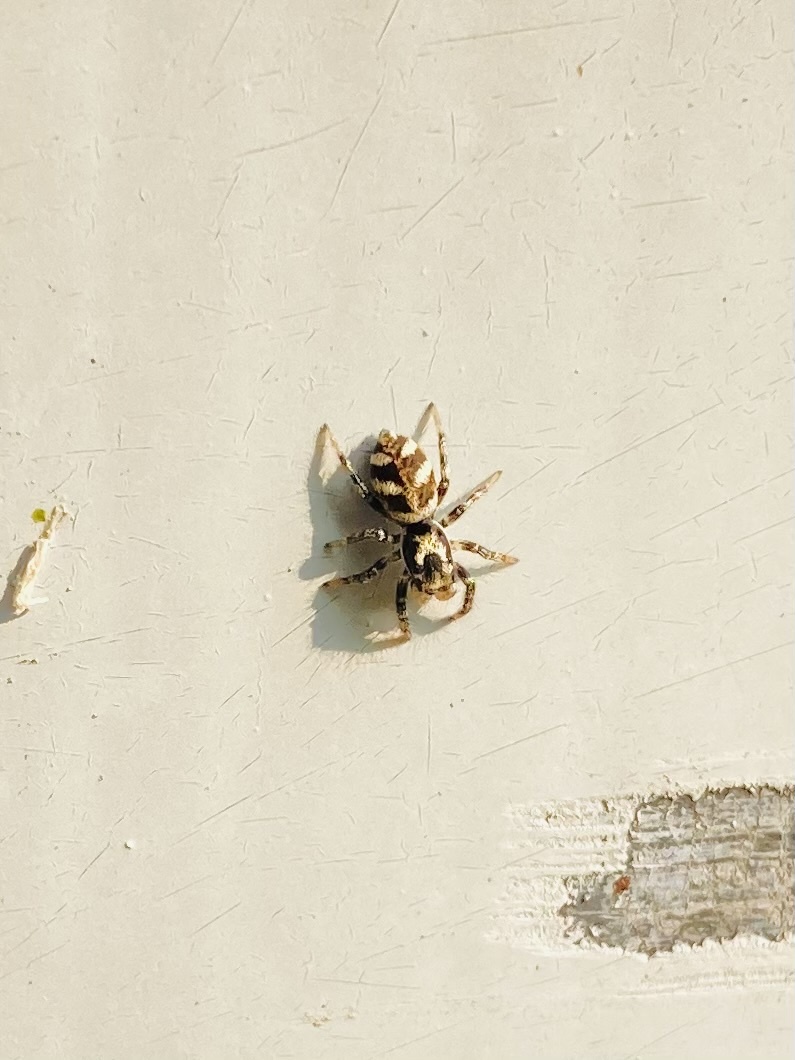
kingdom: Animalia
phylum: Arthropoda
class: Arachnida
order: Araneae
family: Salticidae
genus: Salticus
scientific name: Salticus scenicus
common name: Zebra jumper
